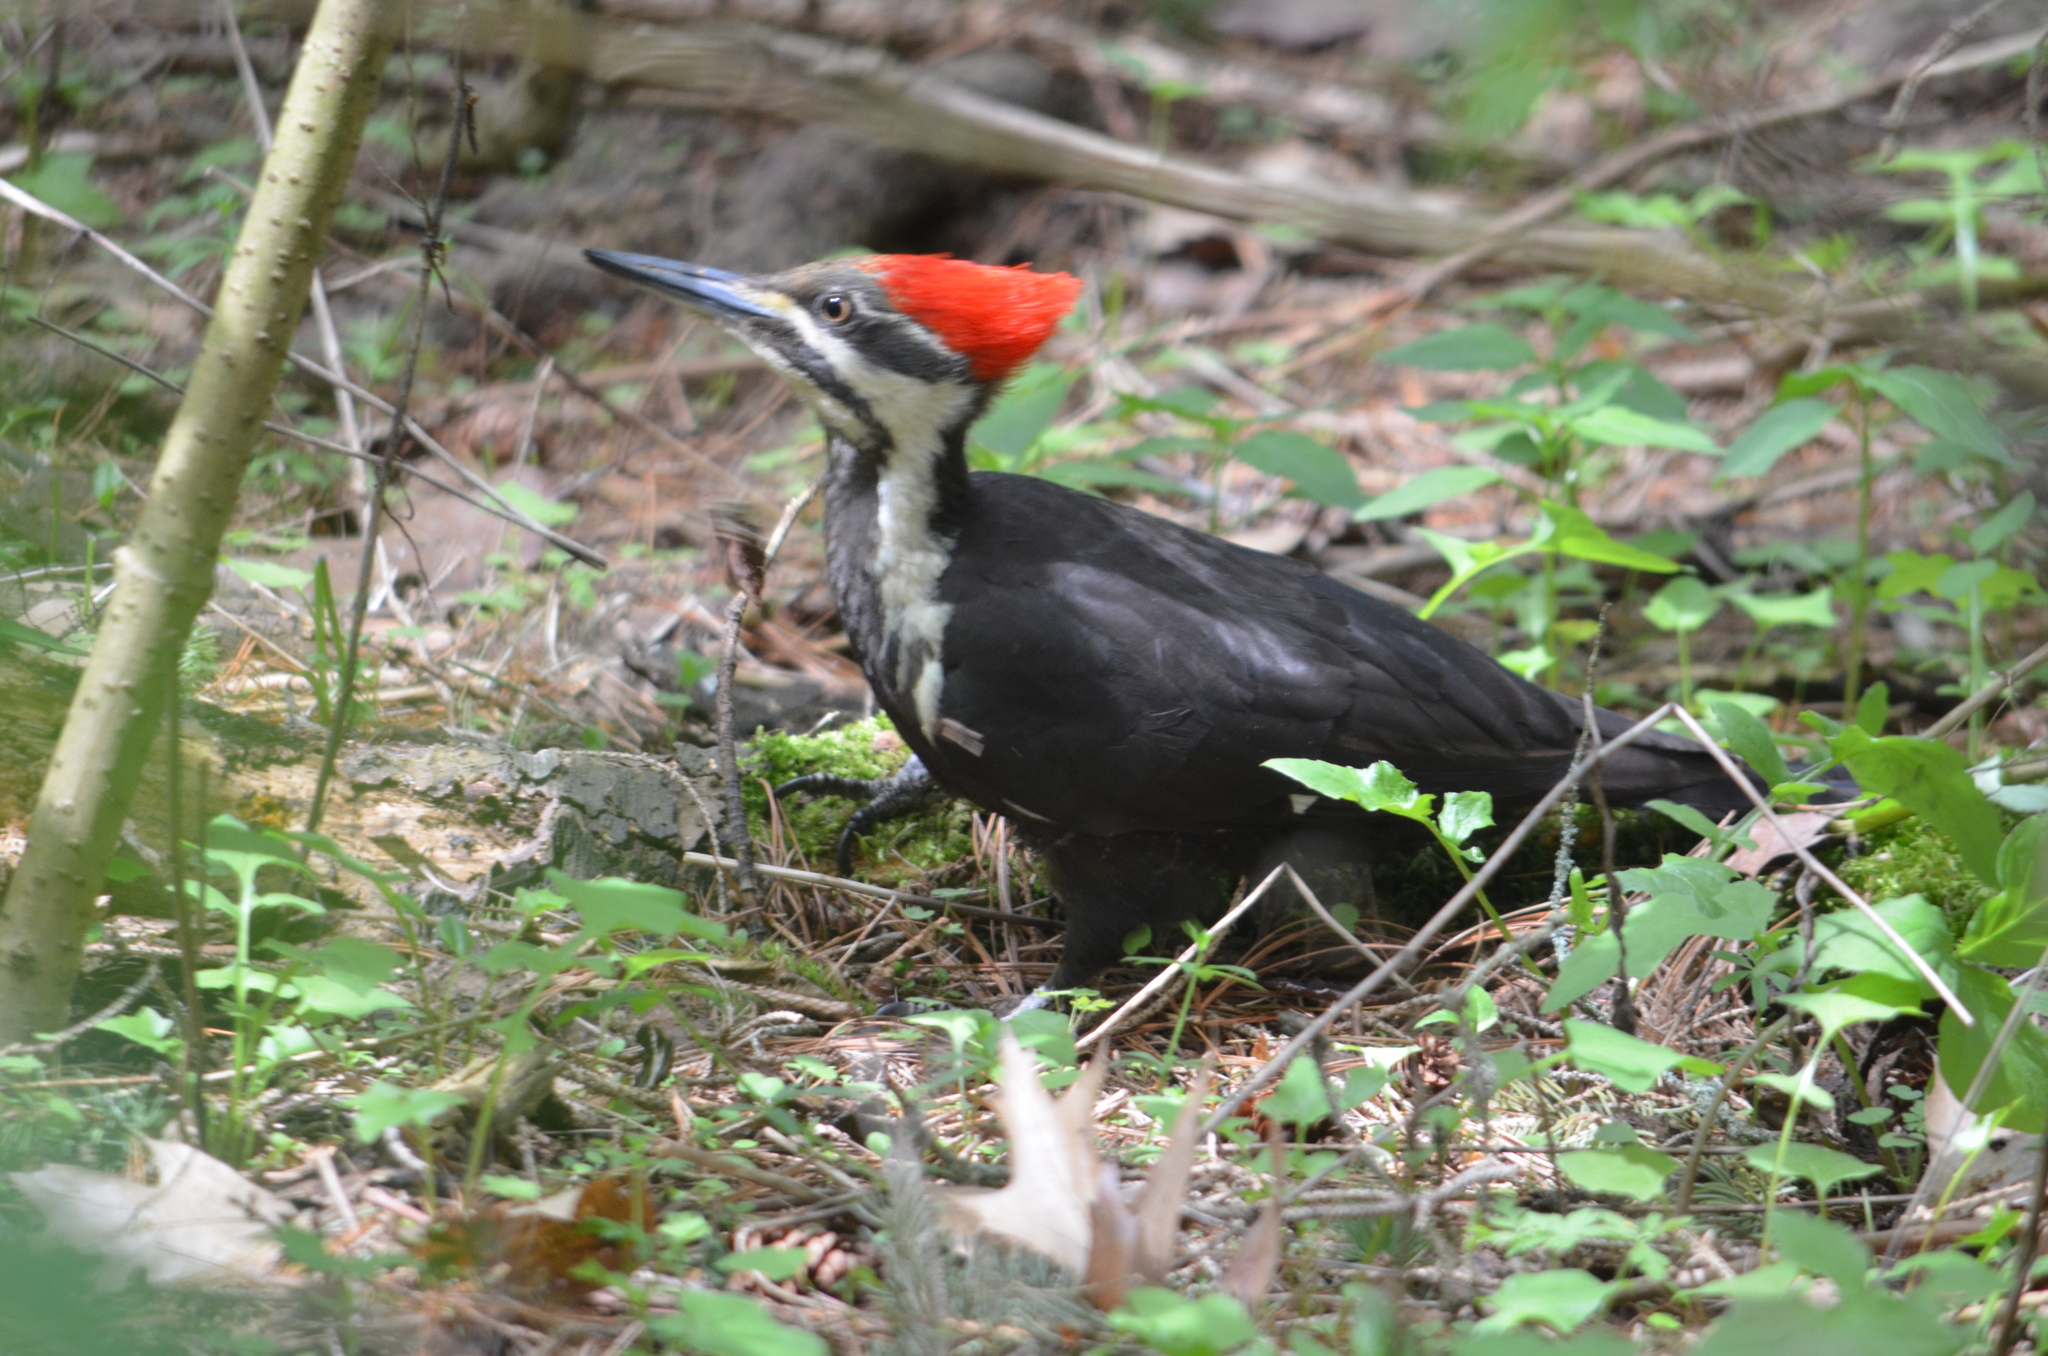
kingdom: Animalia
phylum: Chordata
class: Aves
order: Piciformes
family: Picidae
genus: Dryocopus
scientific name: Dryocopus pileatus
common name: Pileated woodpecker
